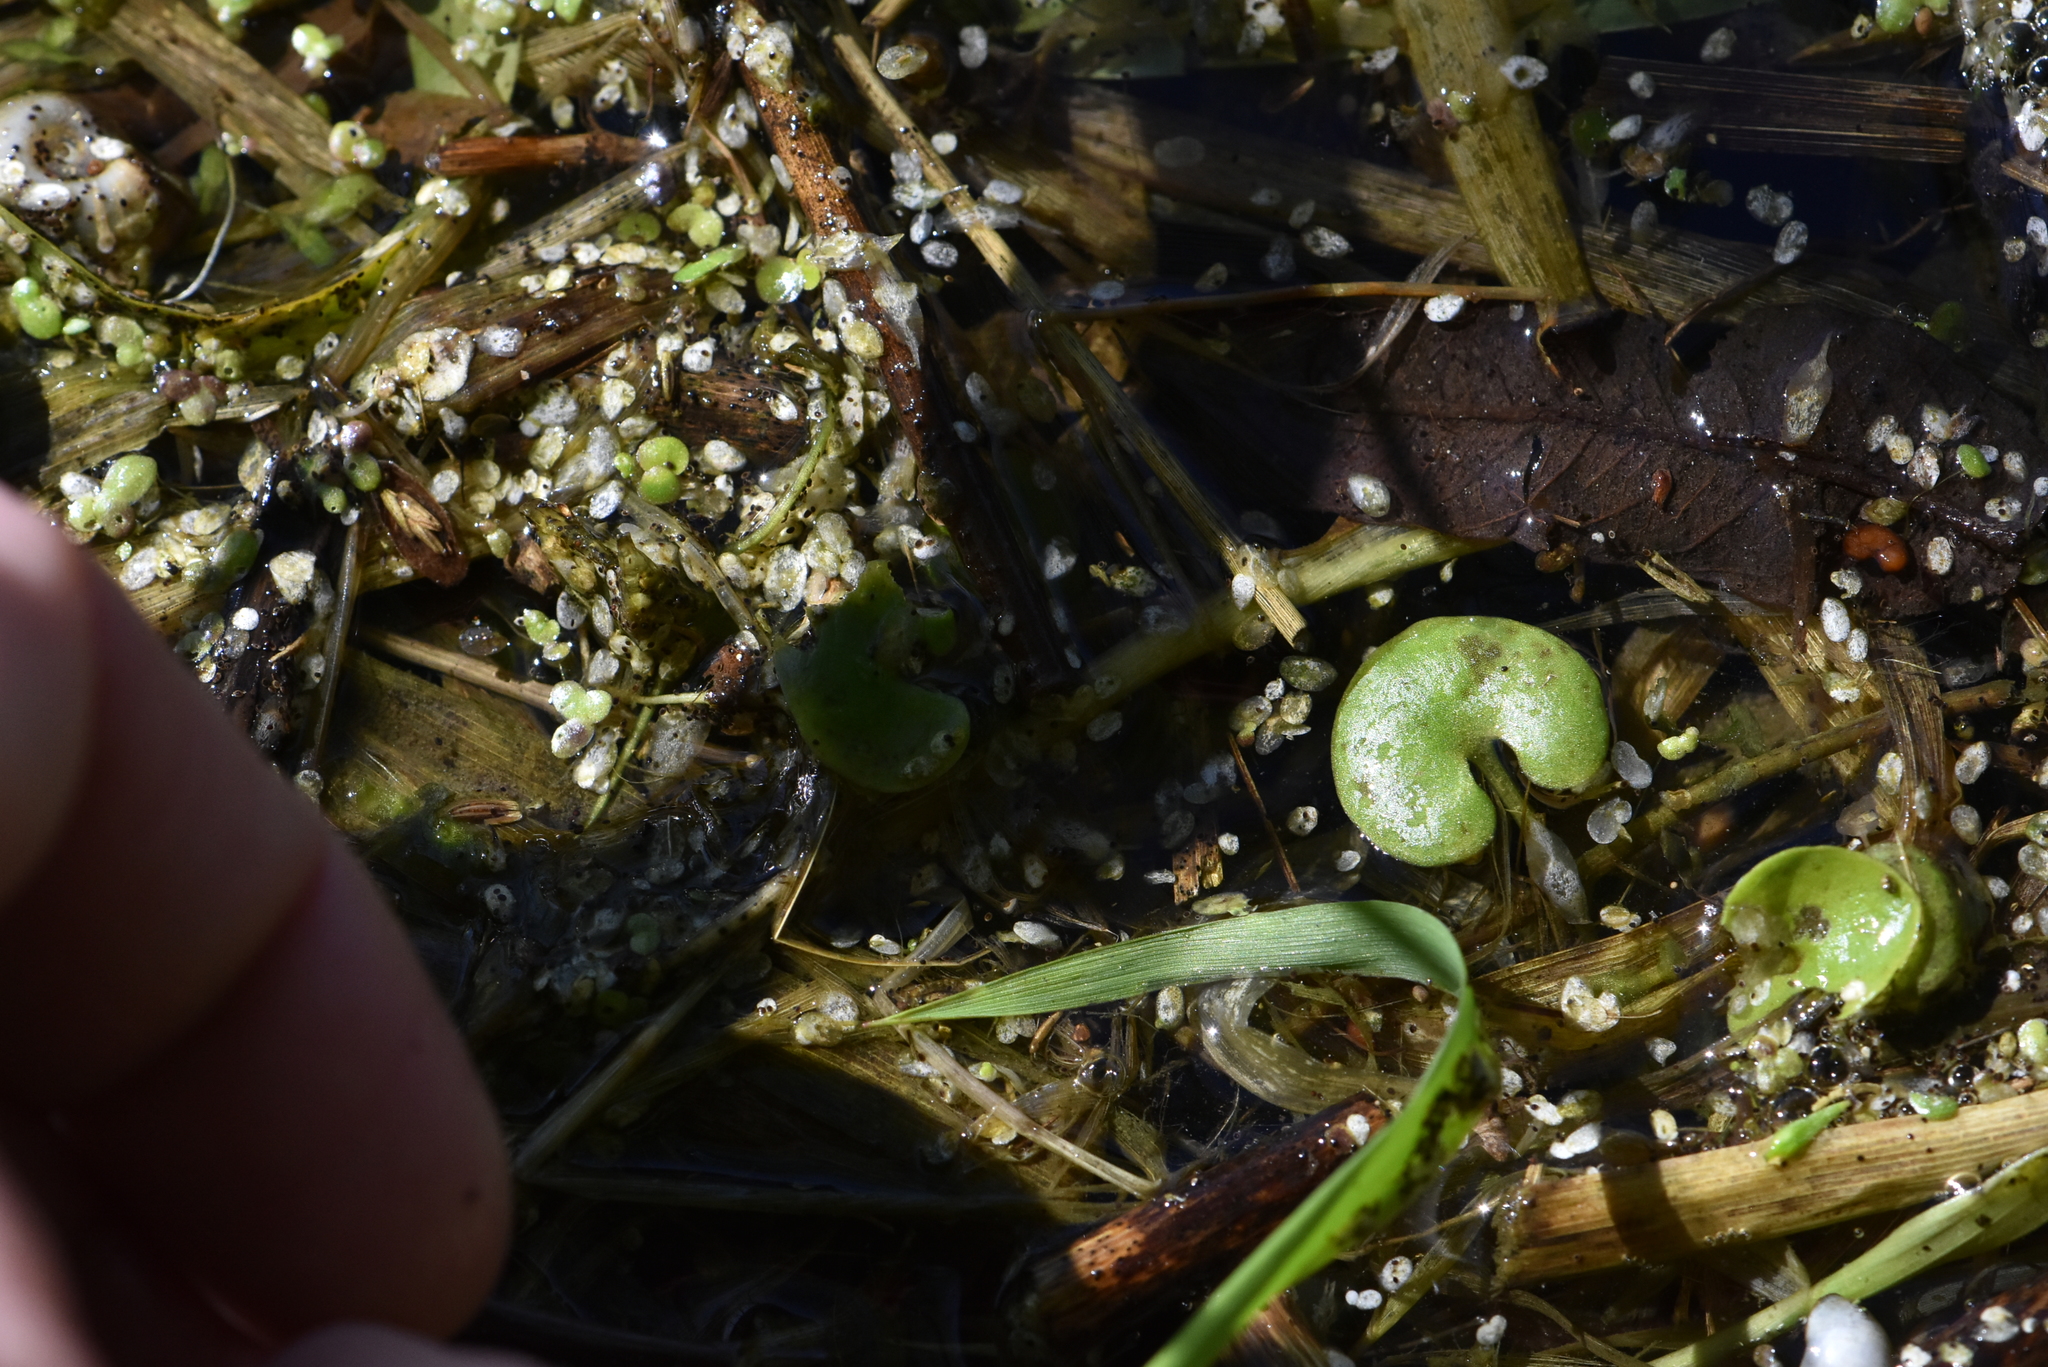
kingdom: Plantae
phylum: Tracheophyta
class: Liliopsida
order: Alismatales
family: Hydrocharitaceae
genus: Hydrocharis
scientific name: Hydrocharis morsus-ranae
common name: Frogbit
